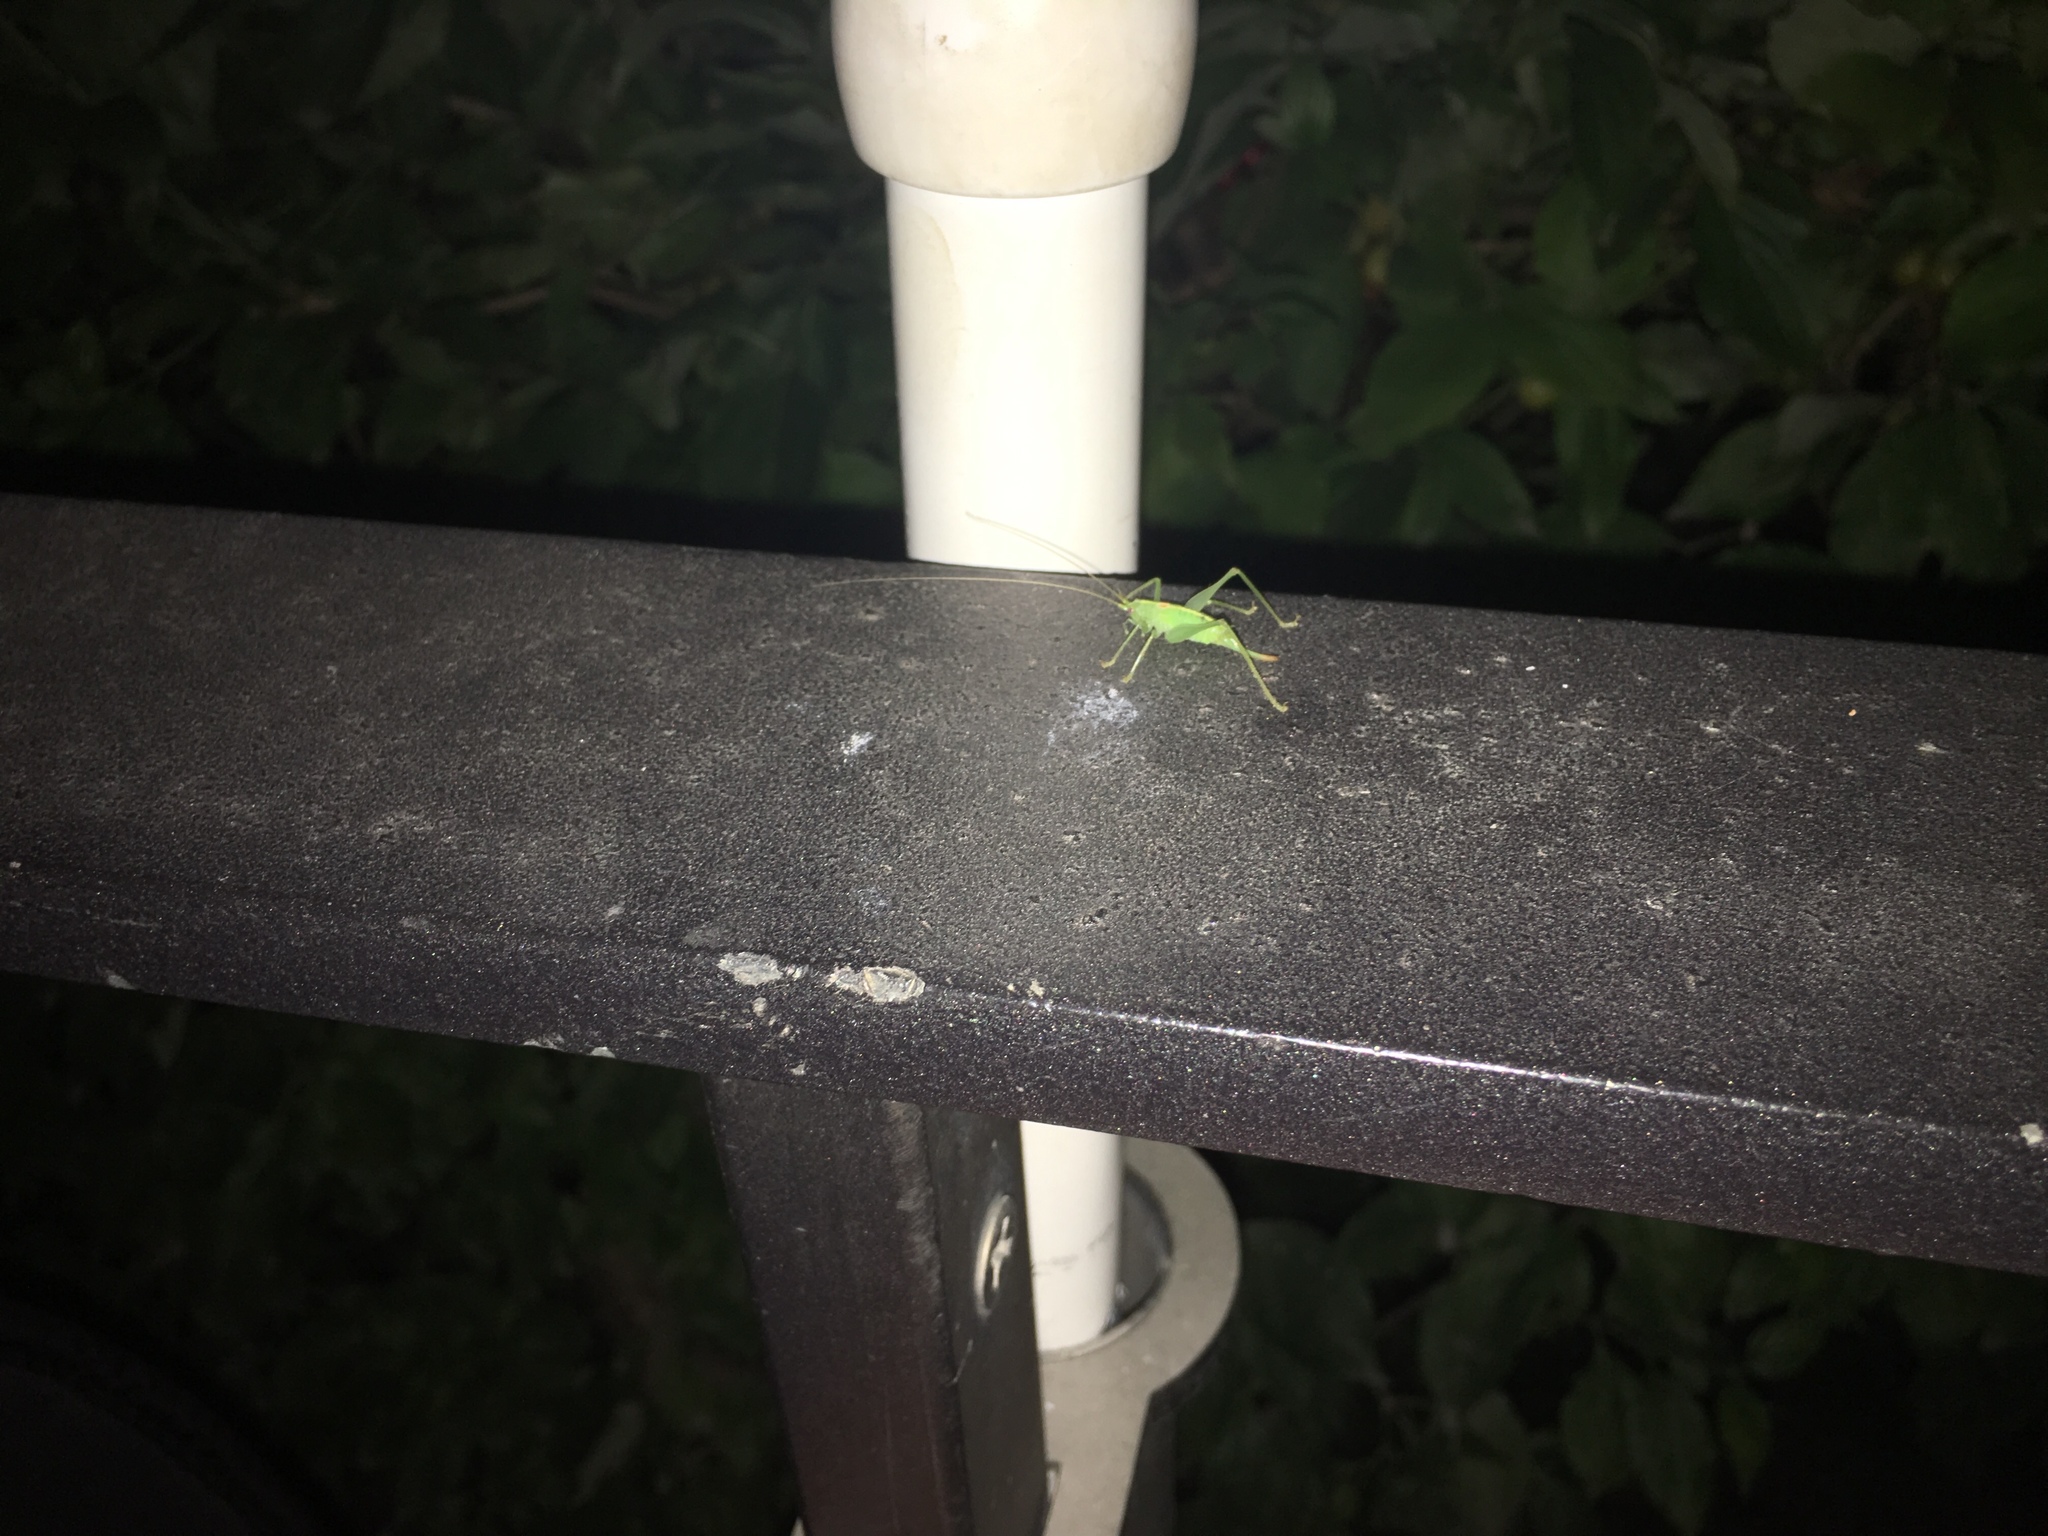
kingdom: Animalia
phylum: Arthropoda
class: Insecta
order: Orthoptera
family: Tettigoniidae
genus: Meconema
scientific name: Meconema meridionale
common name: Southern oak bush-cricket
